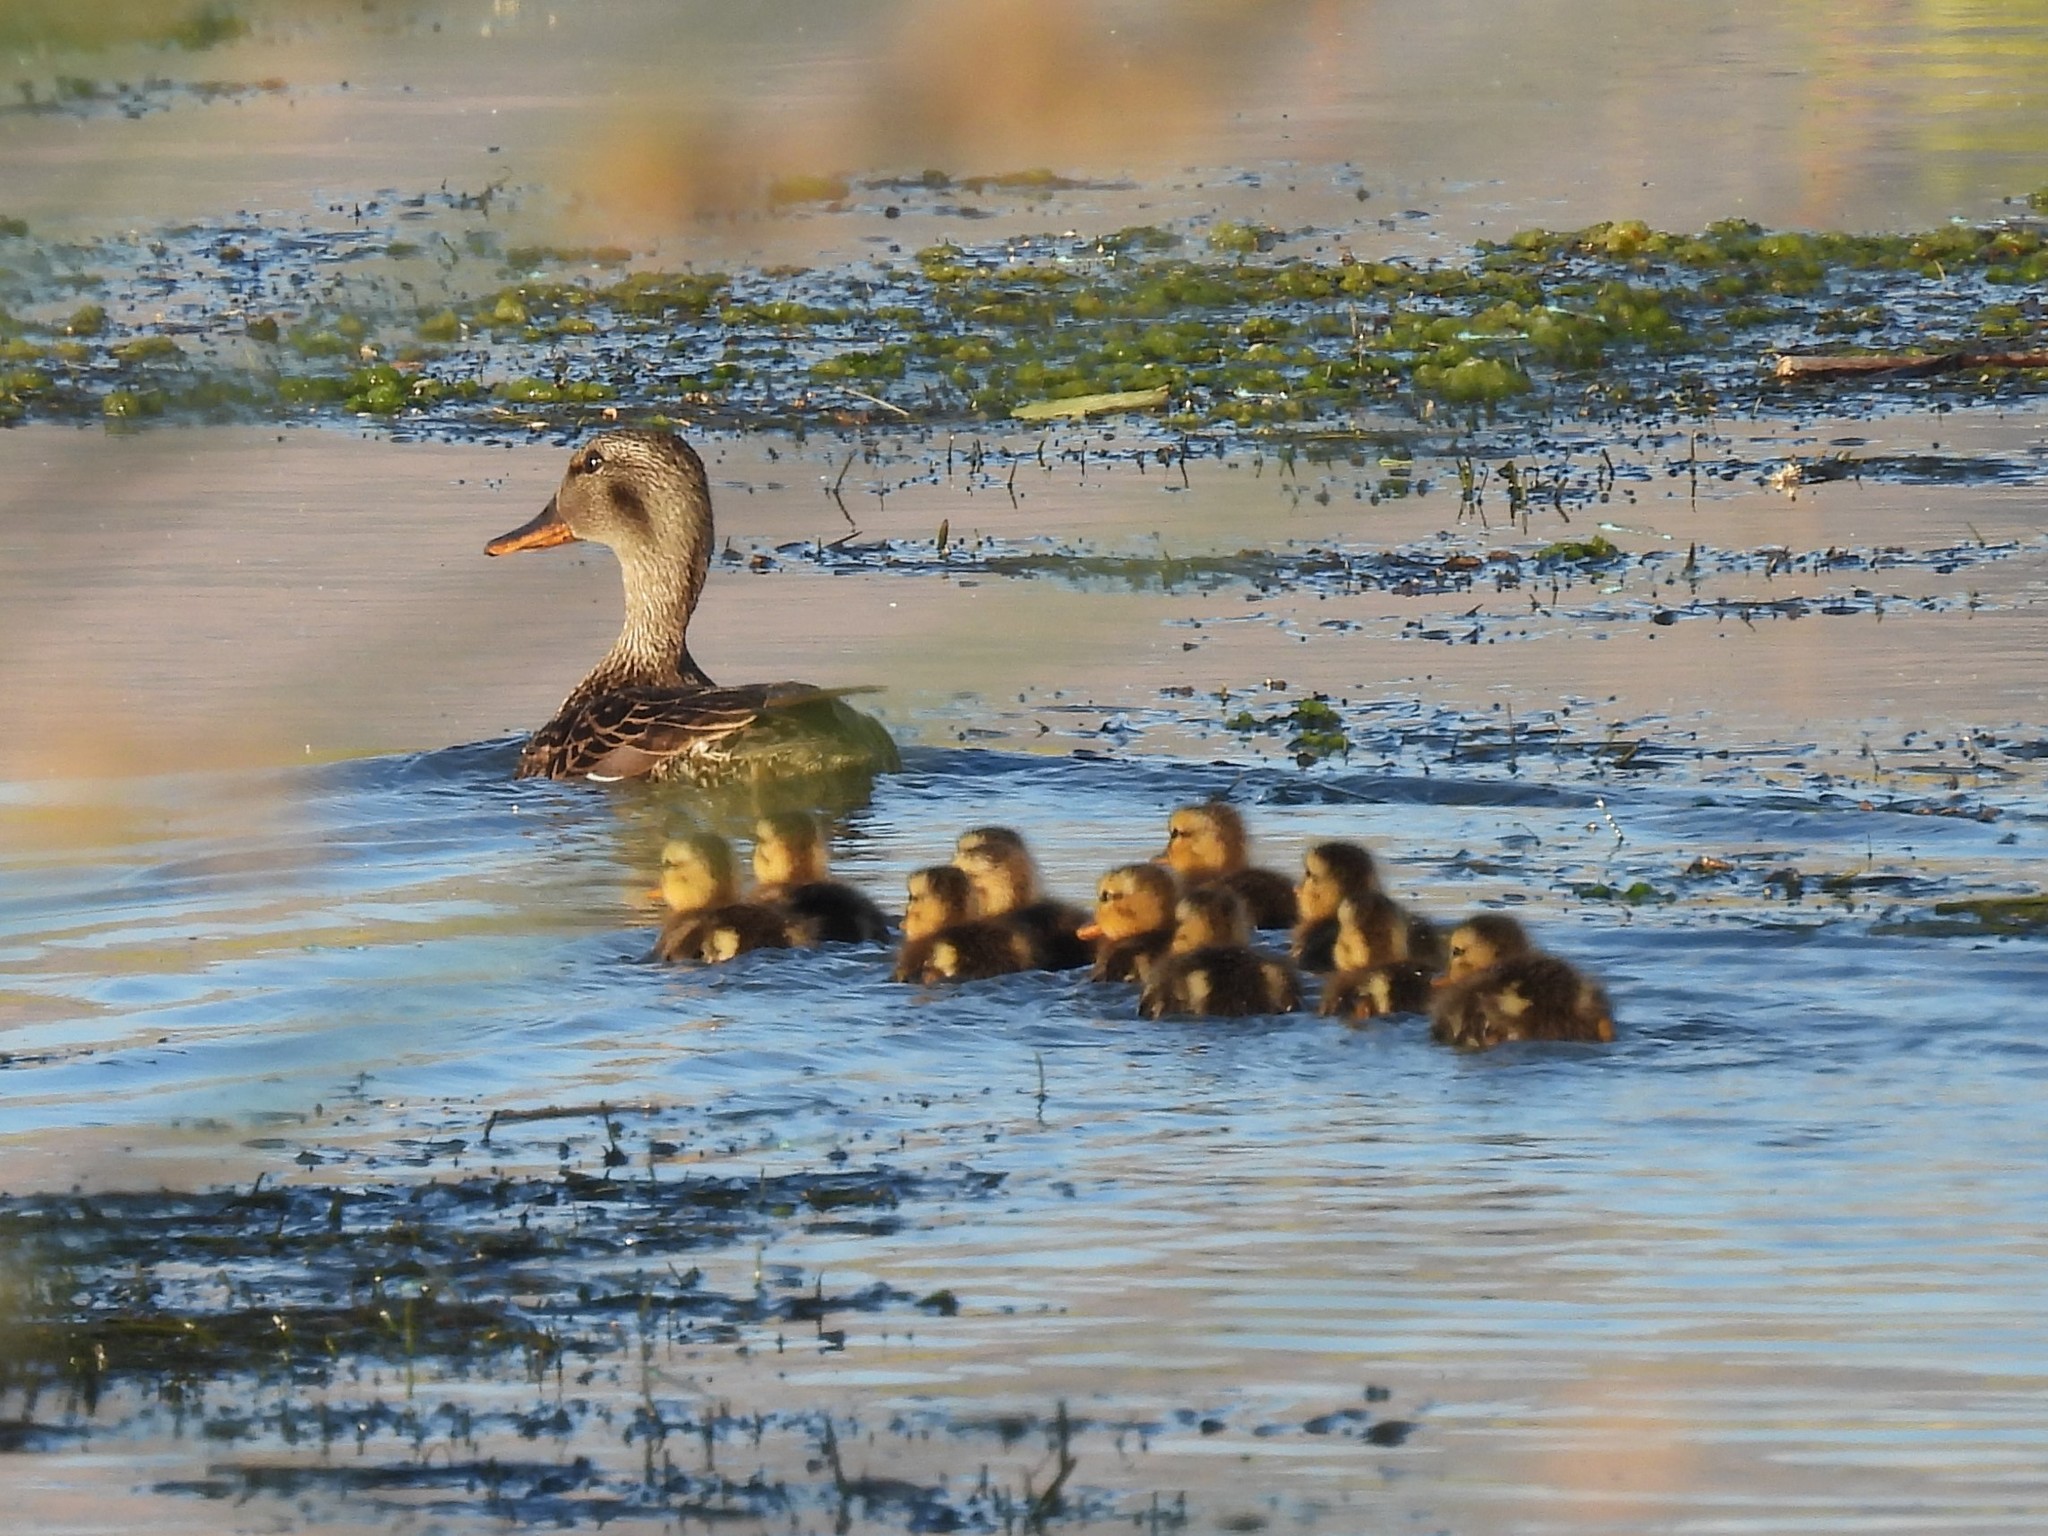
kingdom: Animalia
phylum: Chordata
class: Aves
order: Anseriformes
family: Anatidae
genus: Anas
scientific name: Anas platyrhynchos
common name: Mallard
